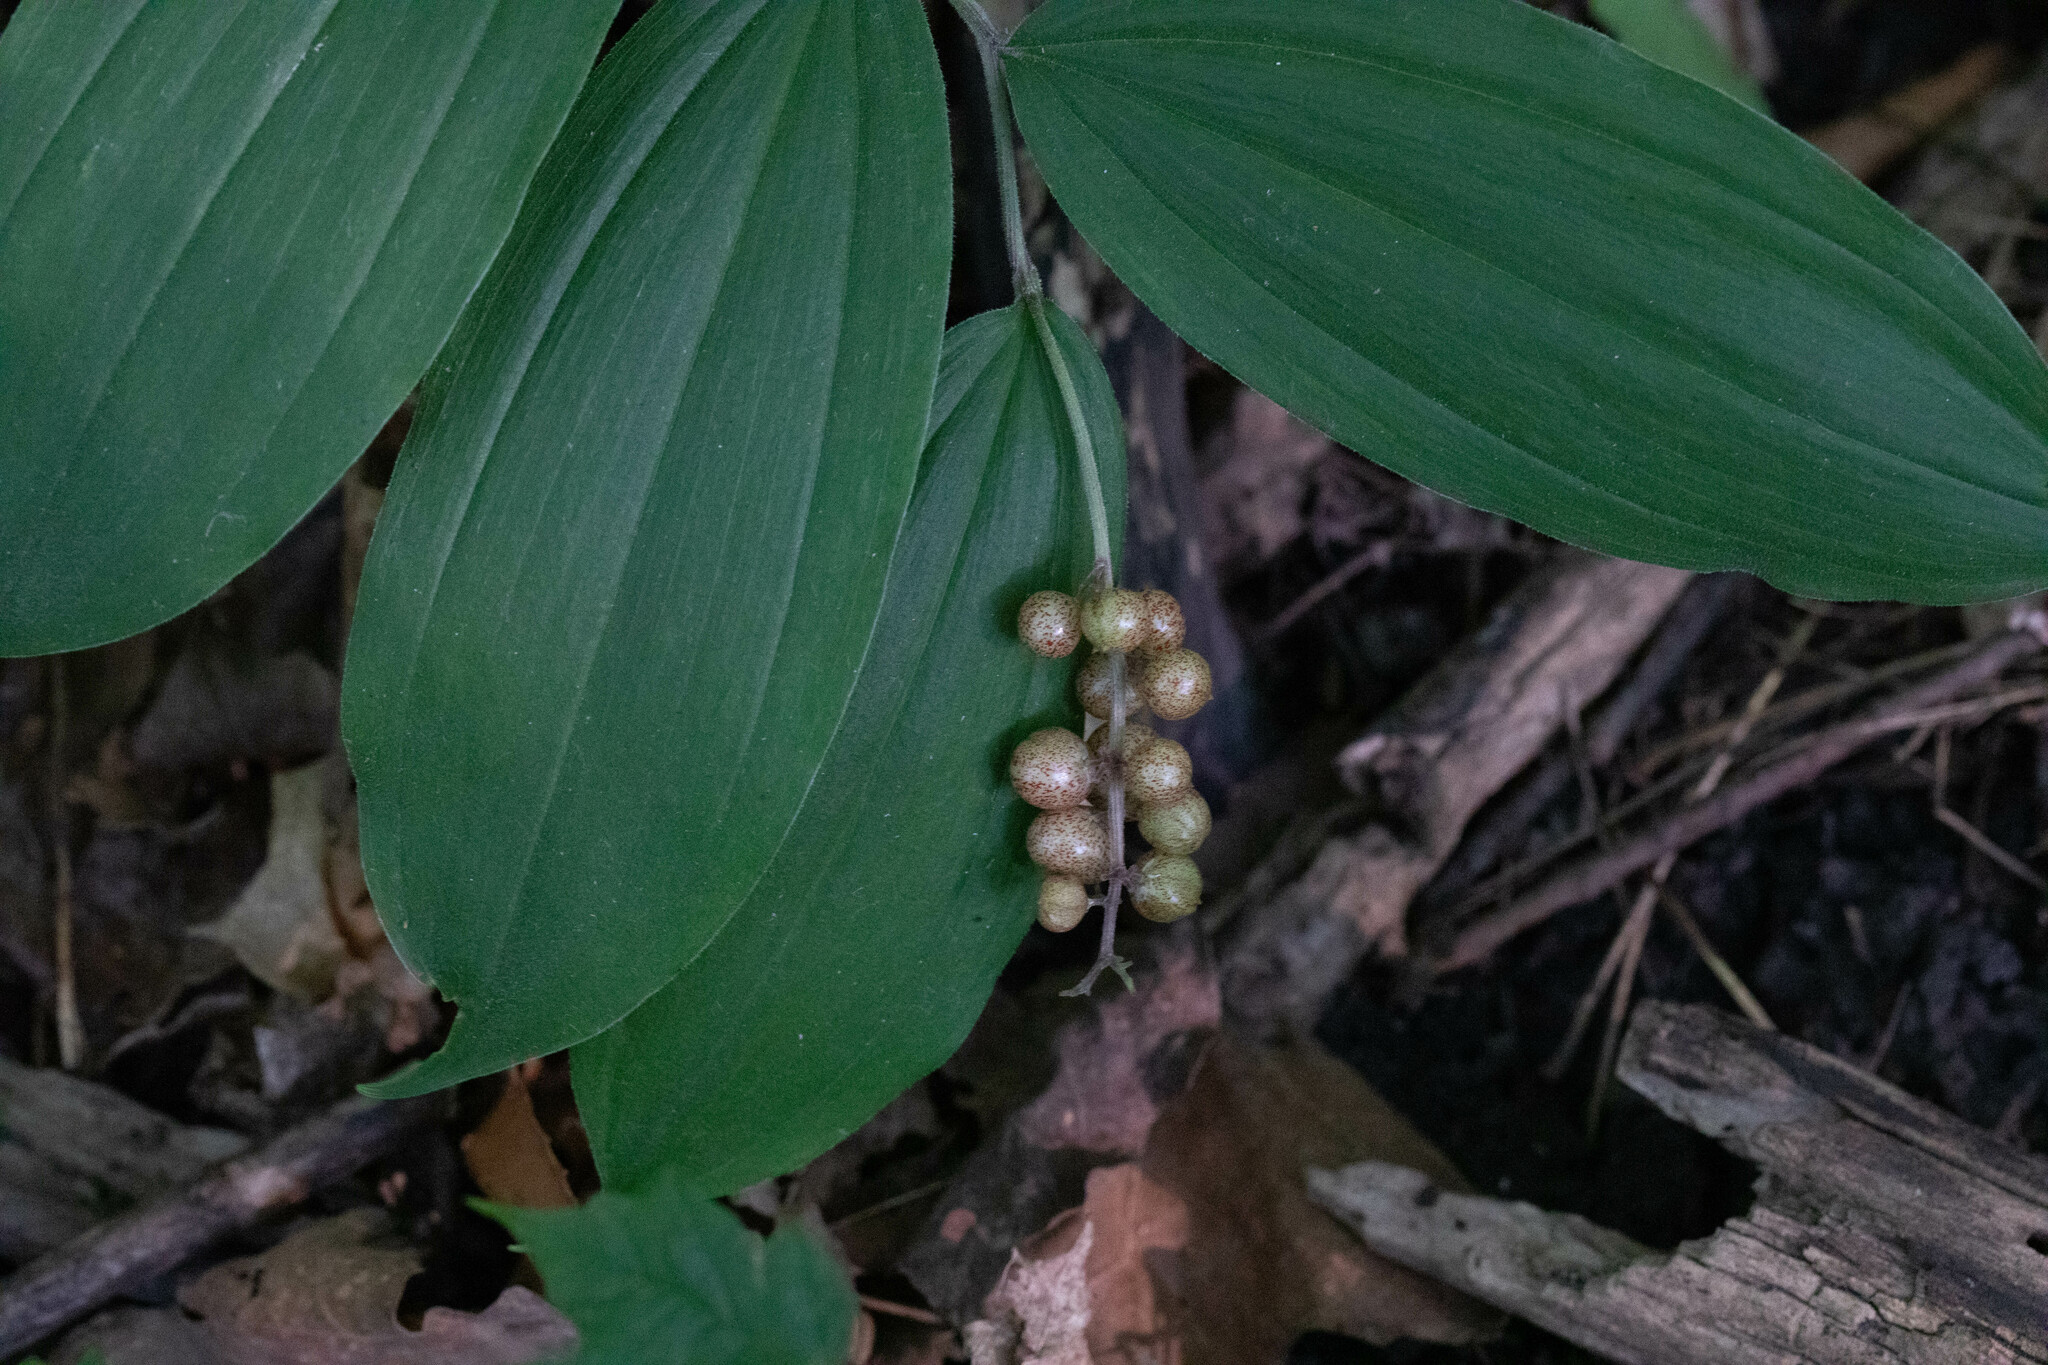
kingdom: Plantae
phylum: Tracheophyta
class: Liliopsida
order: Asparagales
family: Asparagaceae
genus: Maianthemum
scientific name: Maianthemum racemosum
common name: False spikenard
